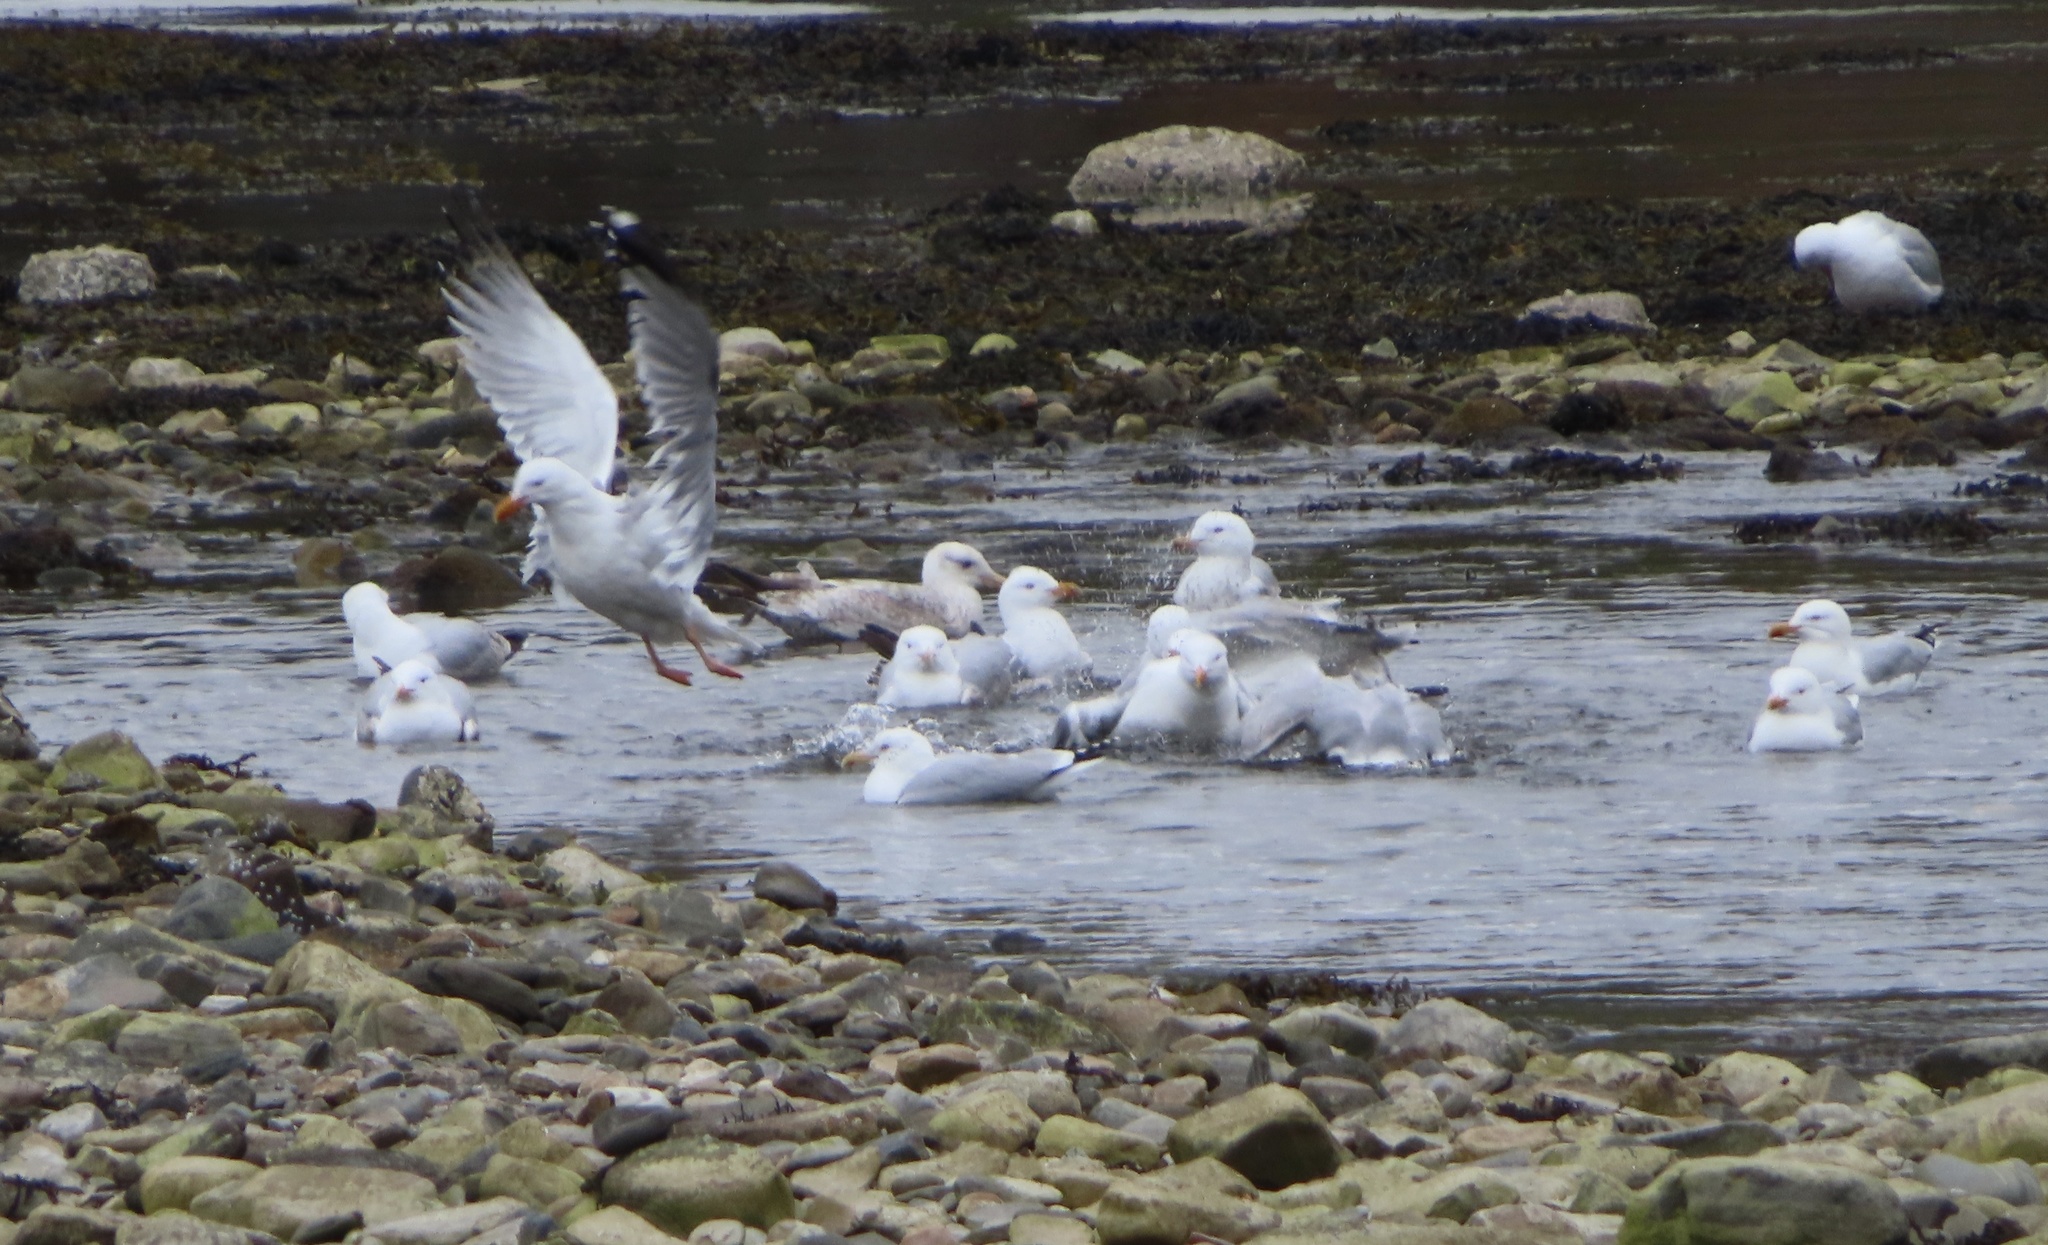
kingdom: Animalia
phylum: Chordata
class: Aves
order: Charadriiformes
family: Laridae
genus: Larus
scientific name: Larus argentatus
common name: Herring gull
